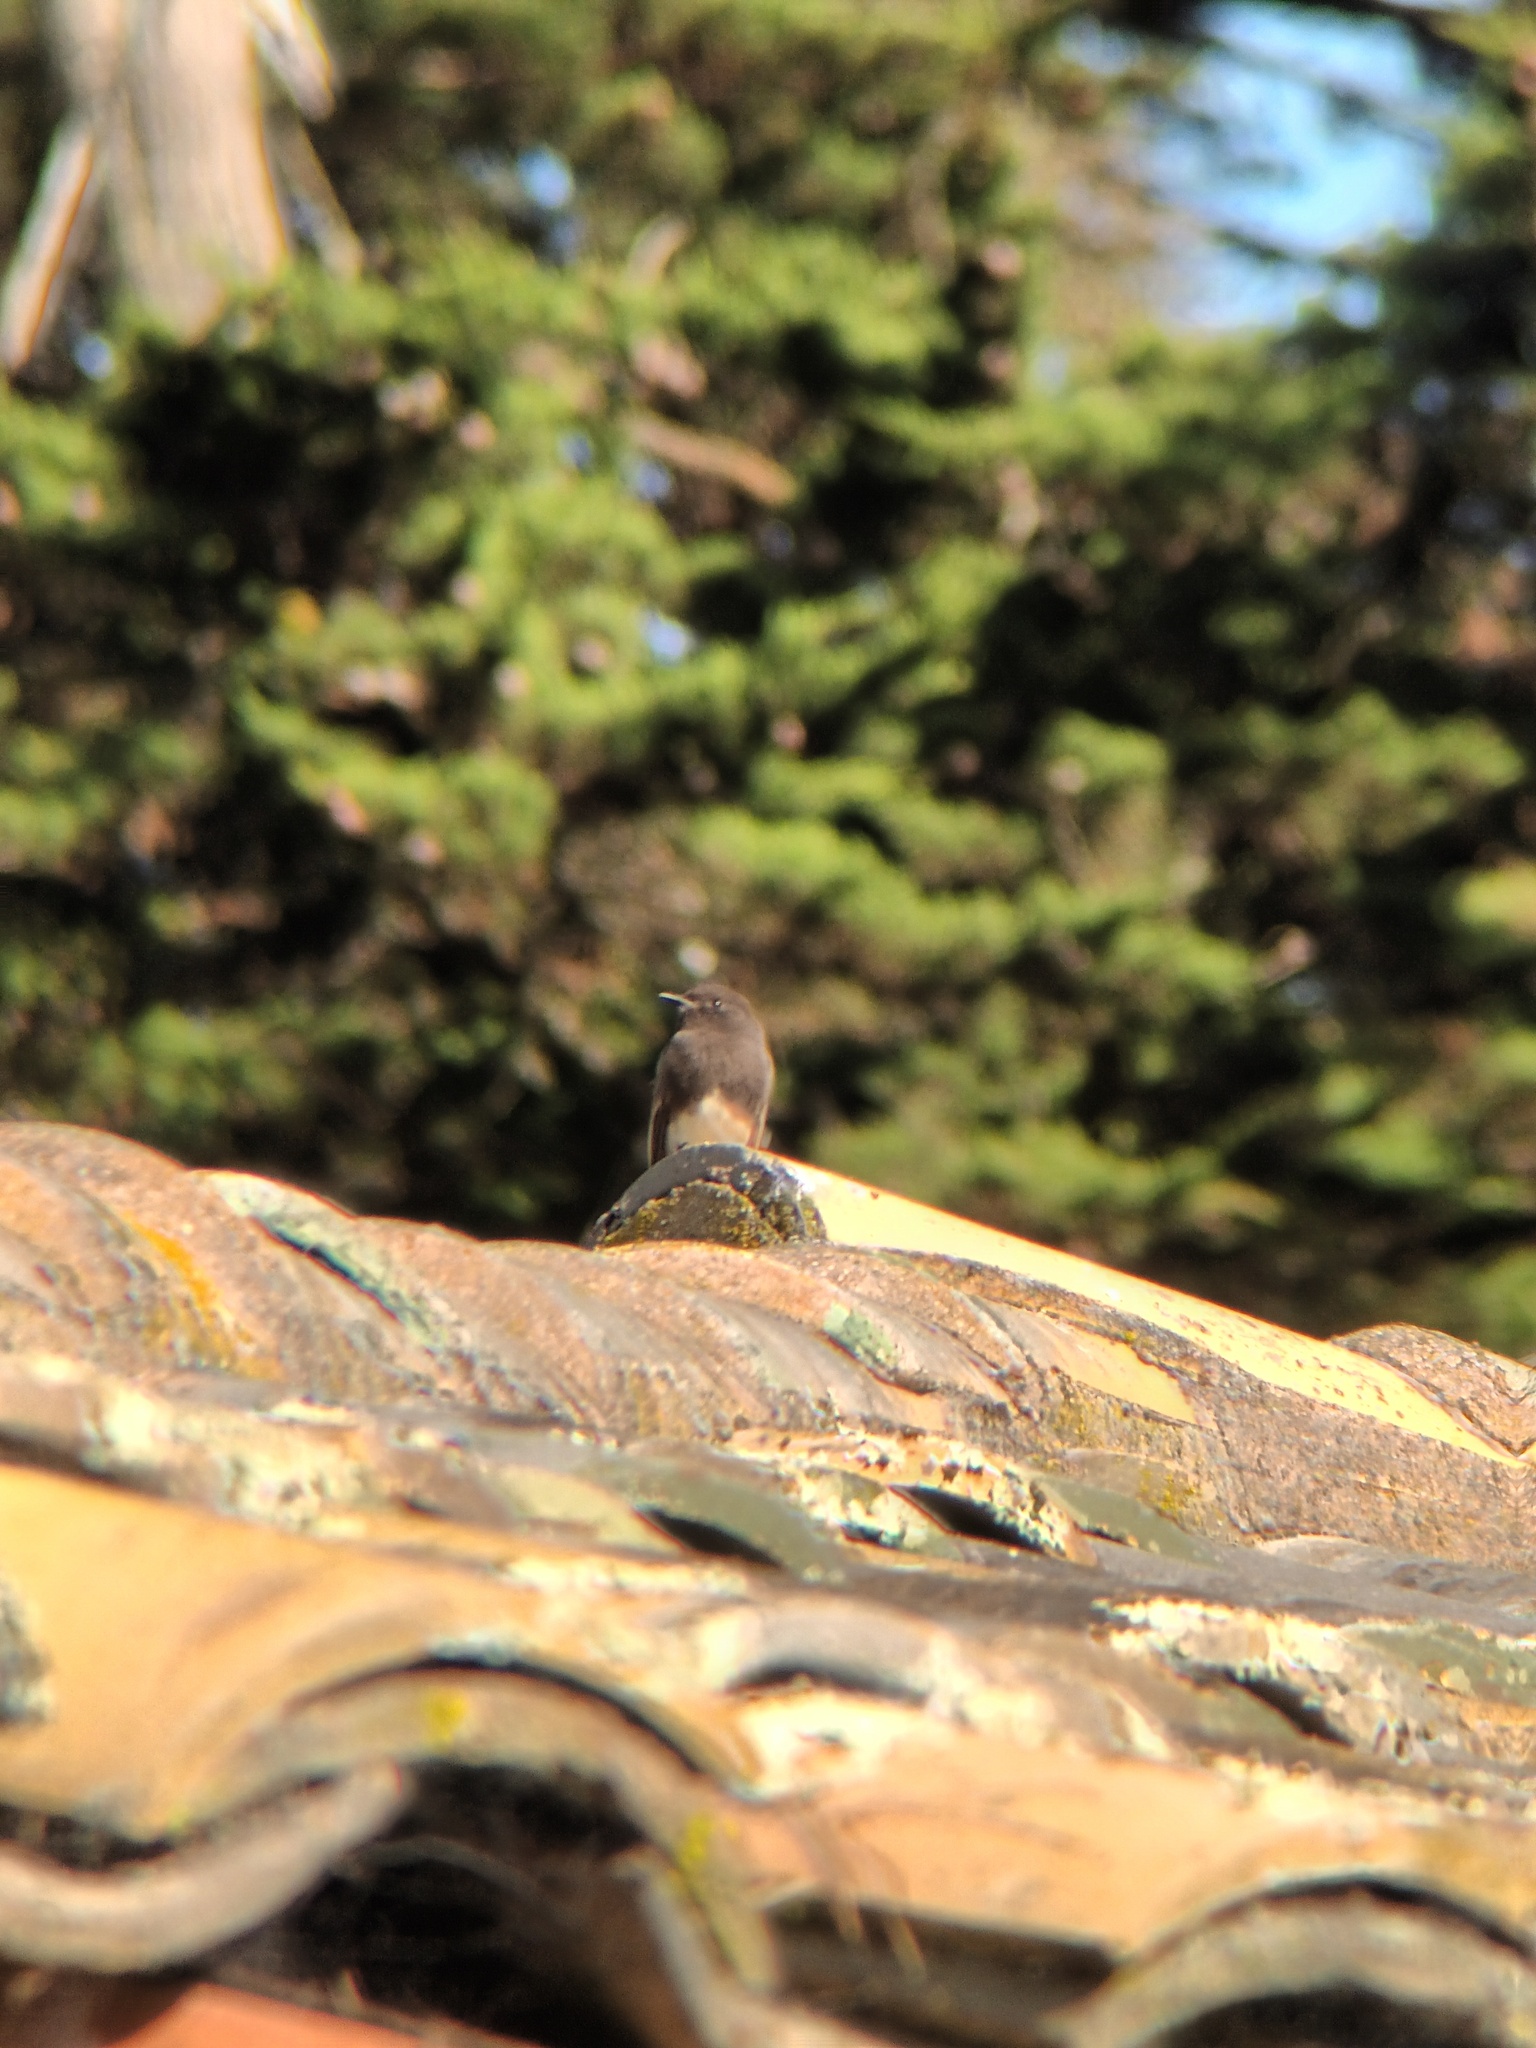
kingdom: Animalia
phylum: Chordata
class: Aves
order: Passeriformes
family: Tyrannidae
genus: Sayornis
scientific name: Sayornis nigricans
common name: Black phoebe
